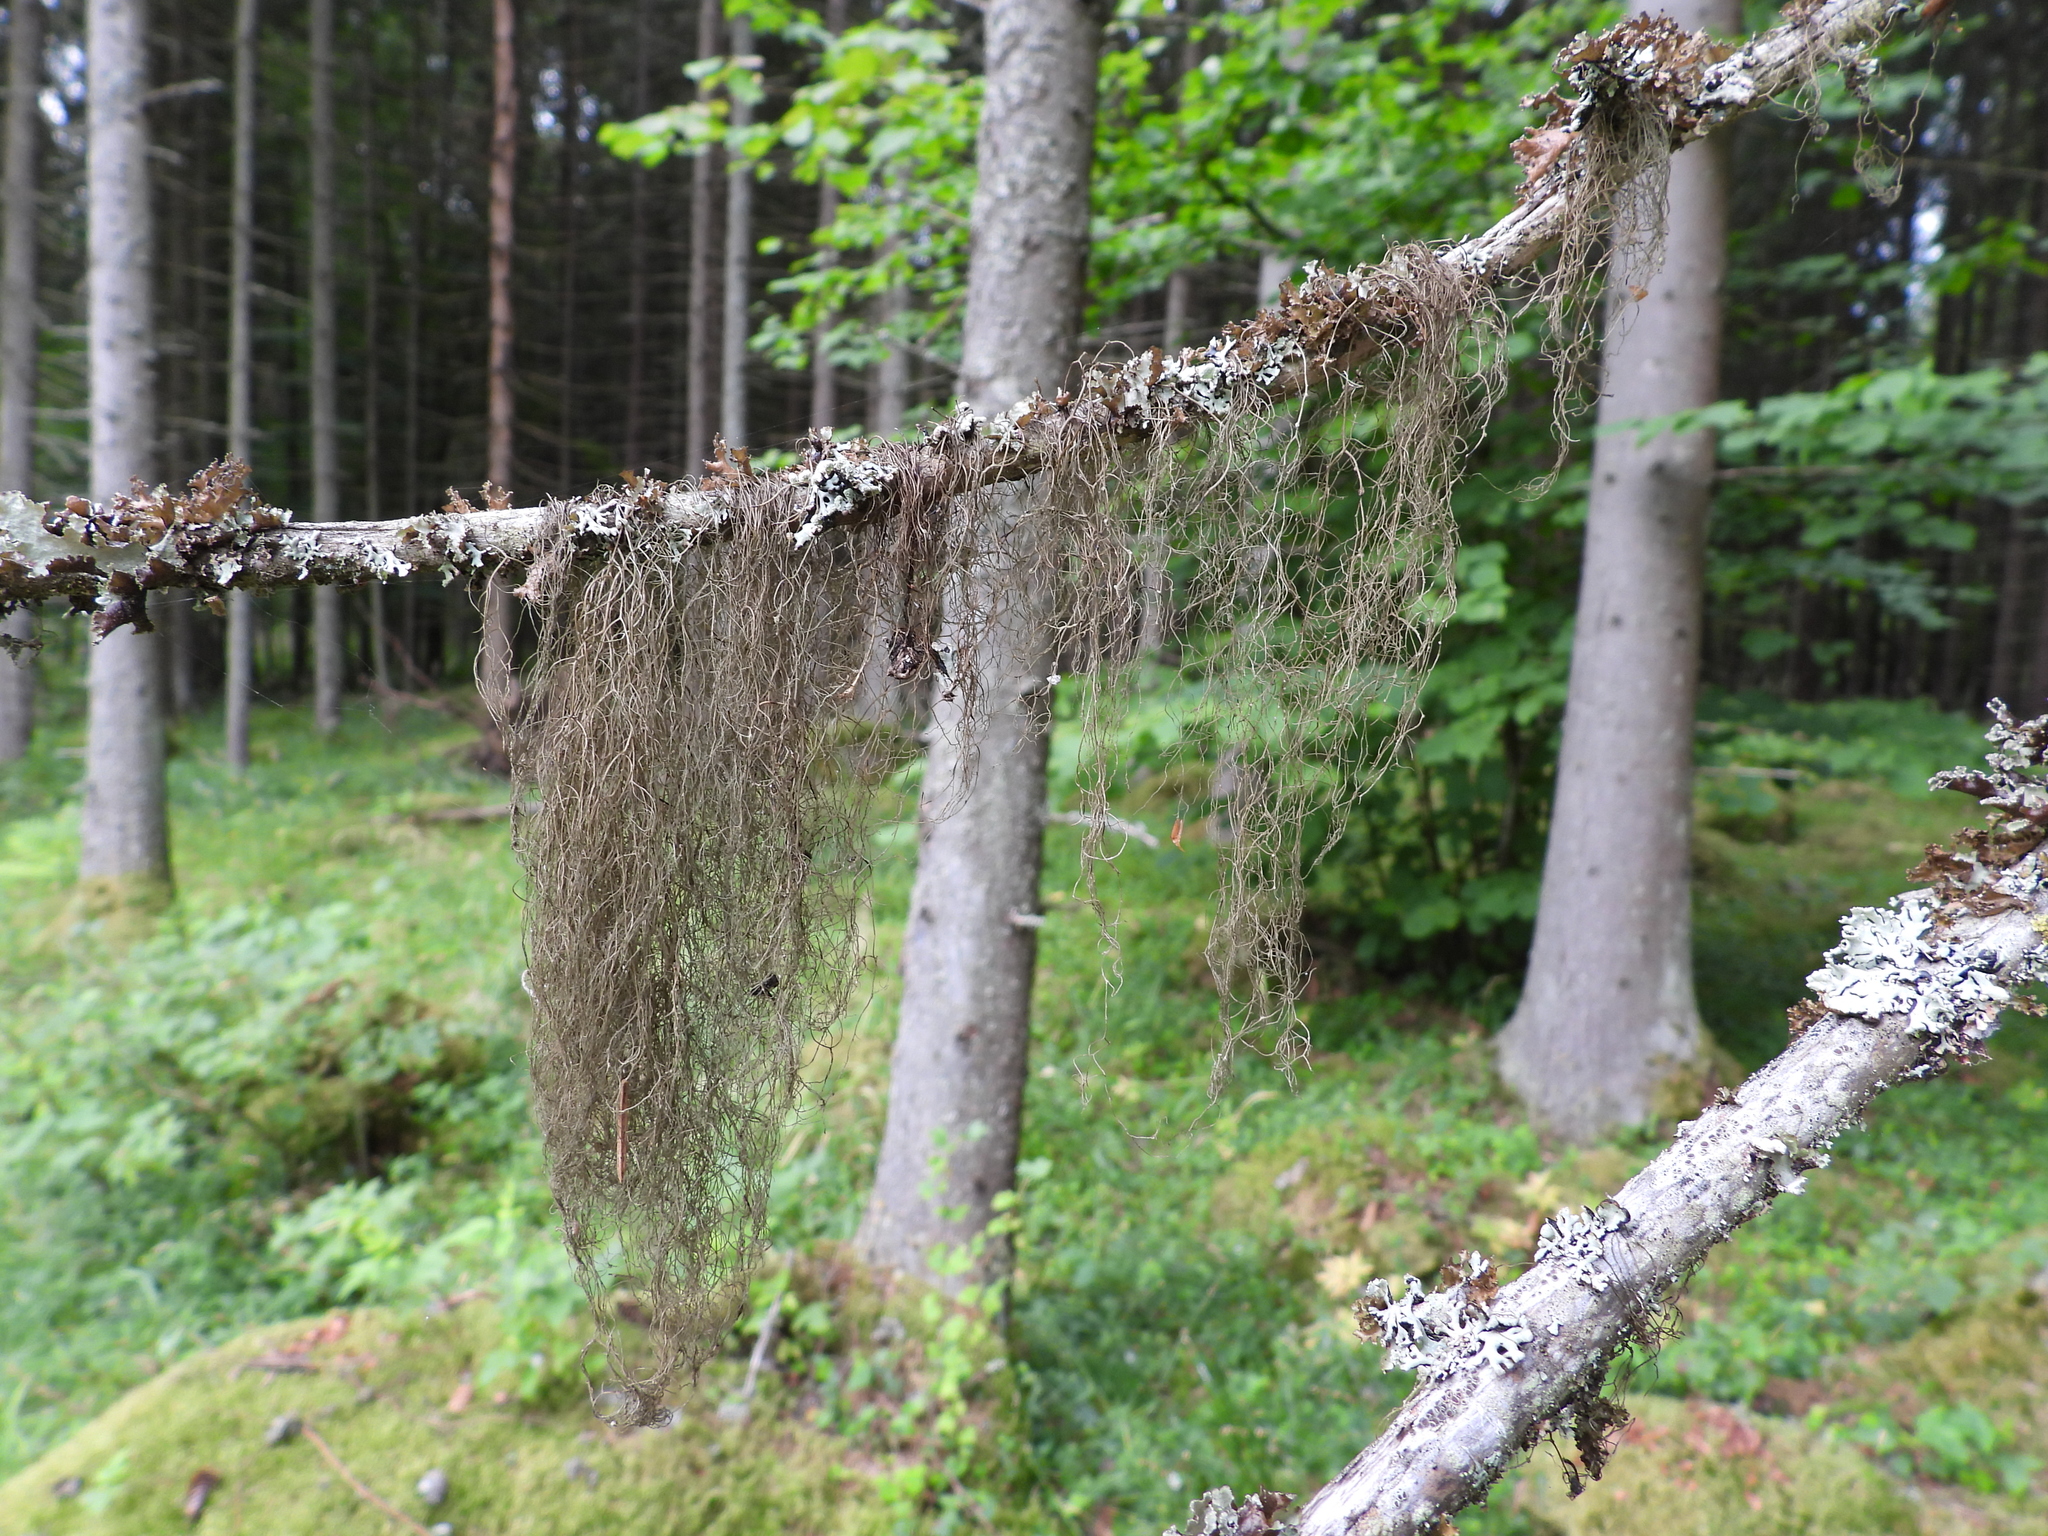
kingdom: Fungi
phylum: Ascomycota
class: Lecanoromycetes
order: Lecanorales
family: Parmeliaceae
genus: Bryoria
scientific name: Bryoria fuscescens
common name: Pale-footed horsehair lichen
